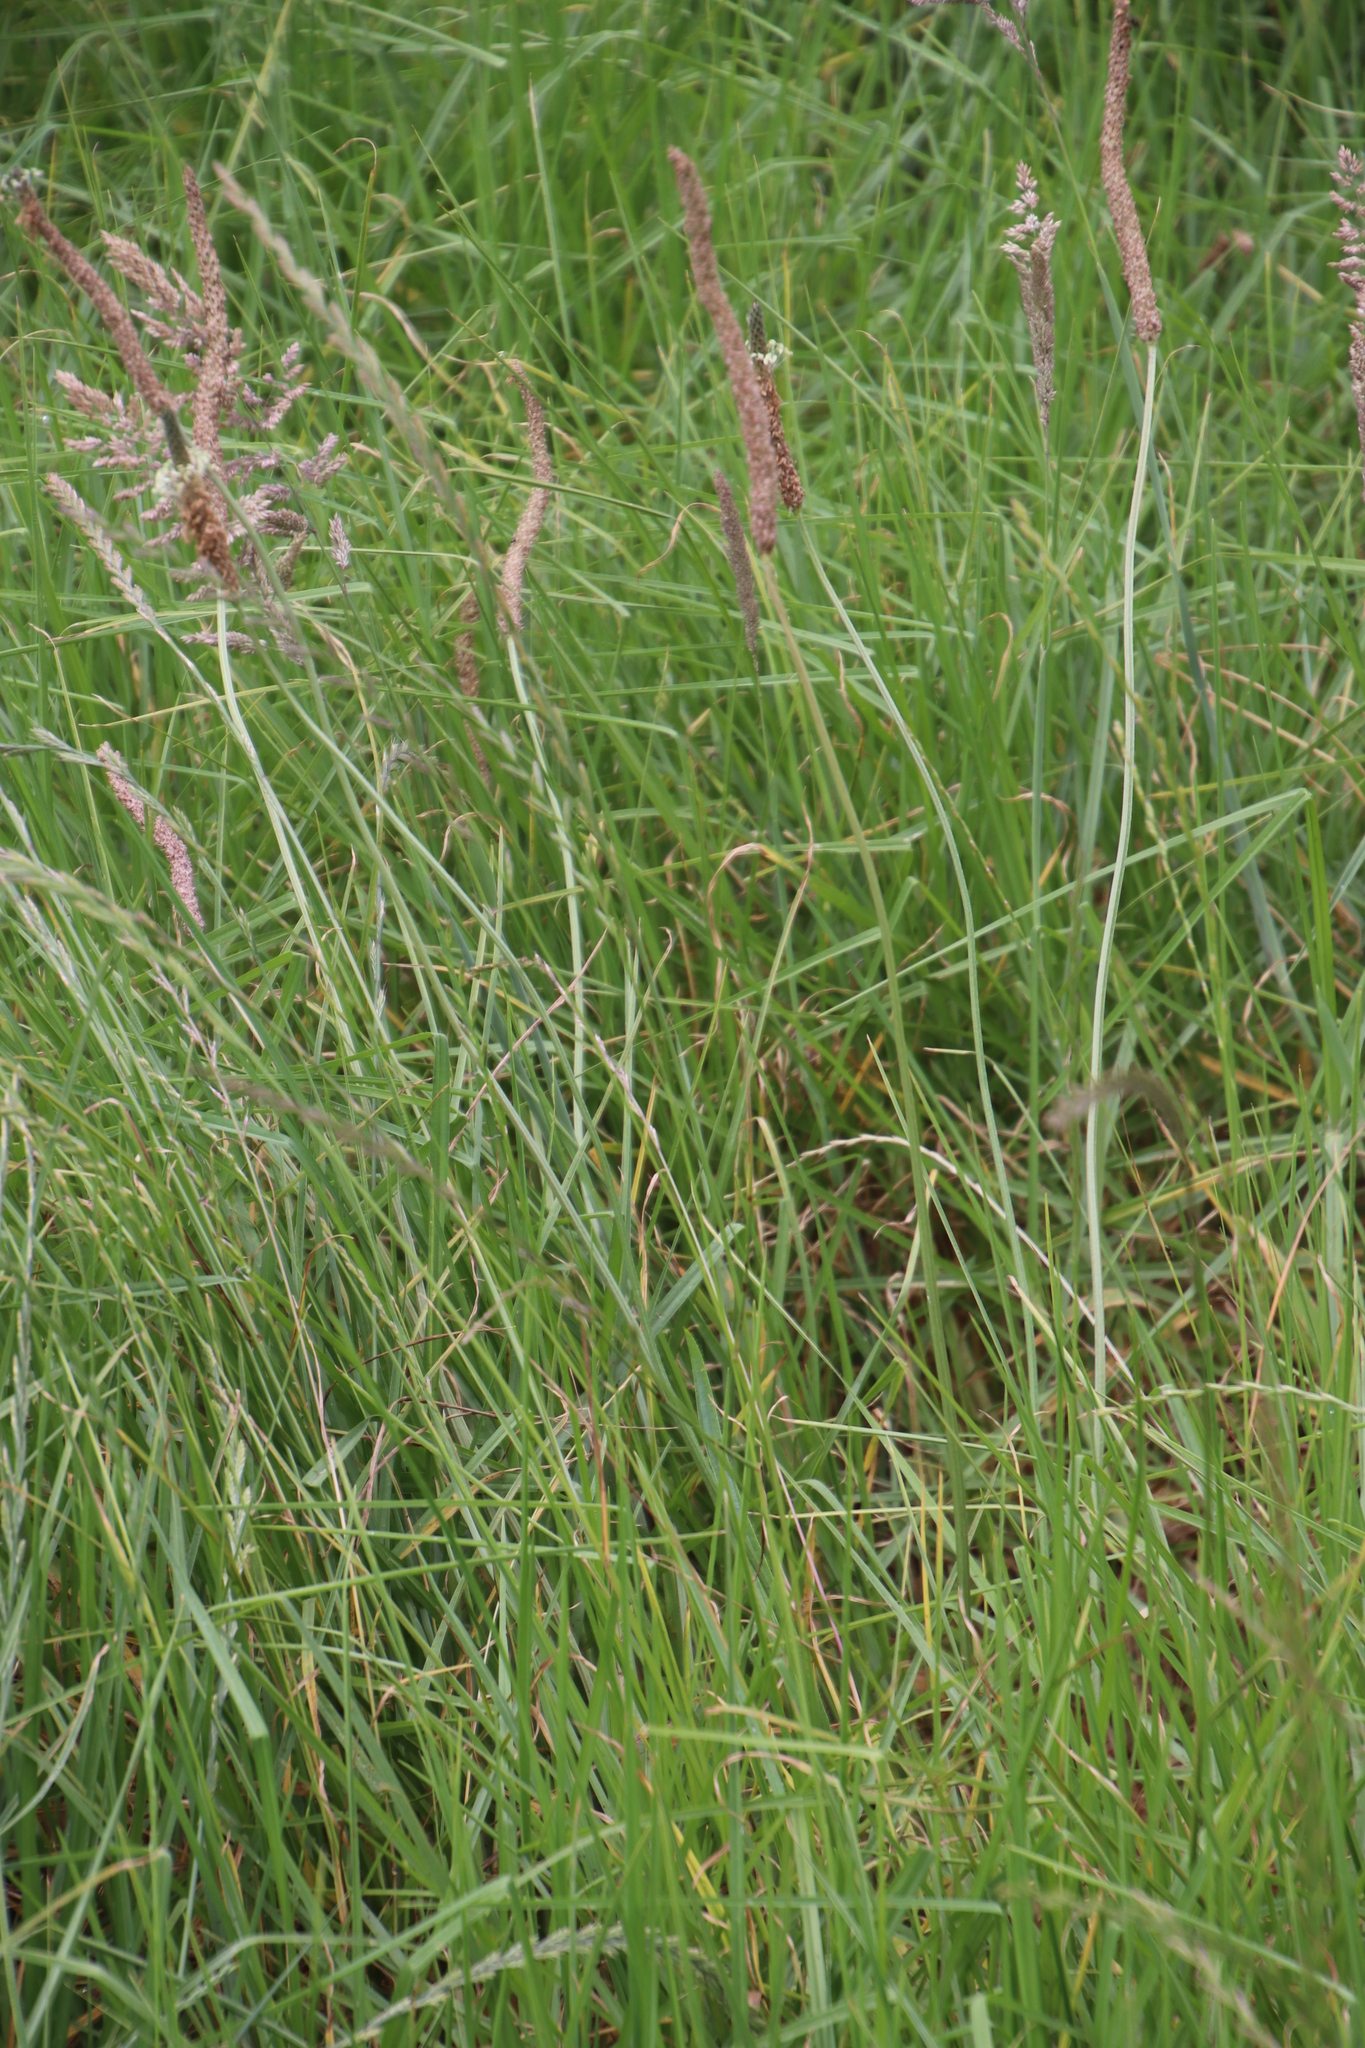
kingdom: Plantae
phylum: Tracheophyta
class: Magnoliopsida
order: Lamiales
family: Plantaginaceae
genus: Plantago
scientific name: Plantago lanceolata
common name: Ribwort plantain
